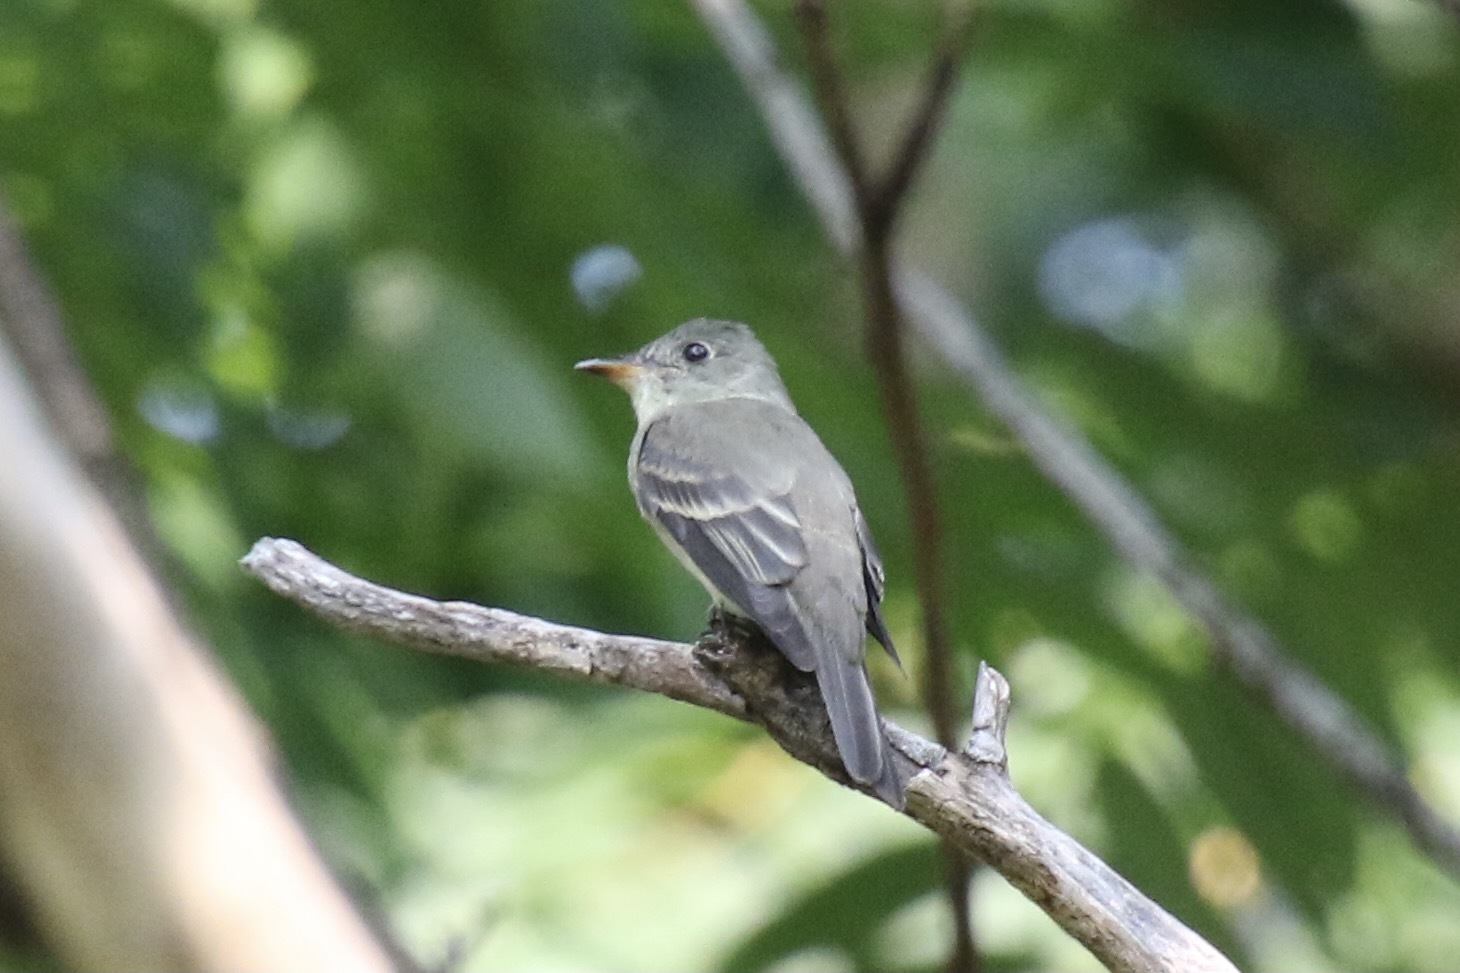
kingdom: Animalia
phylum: Chordata
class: Aves
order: Passeriformes
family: Tyrannidae
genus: Contopus
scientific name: Contopus virens
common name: Eastern wood-pewee
